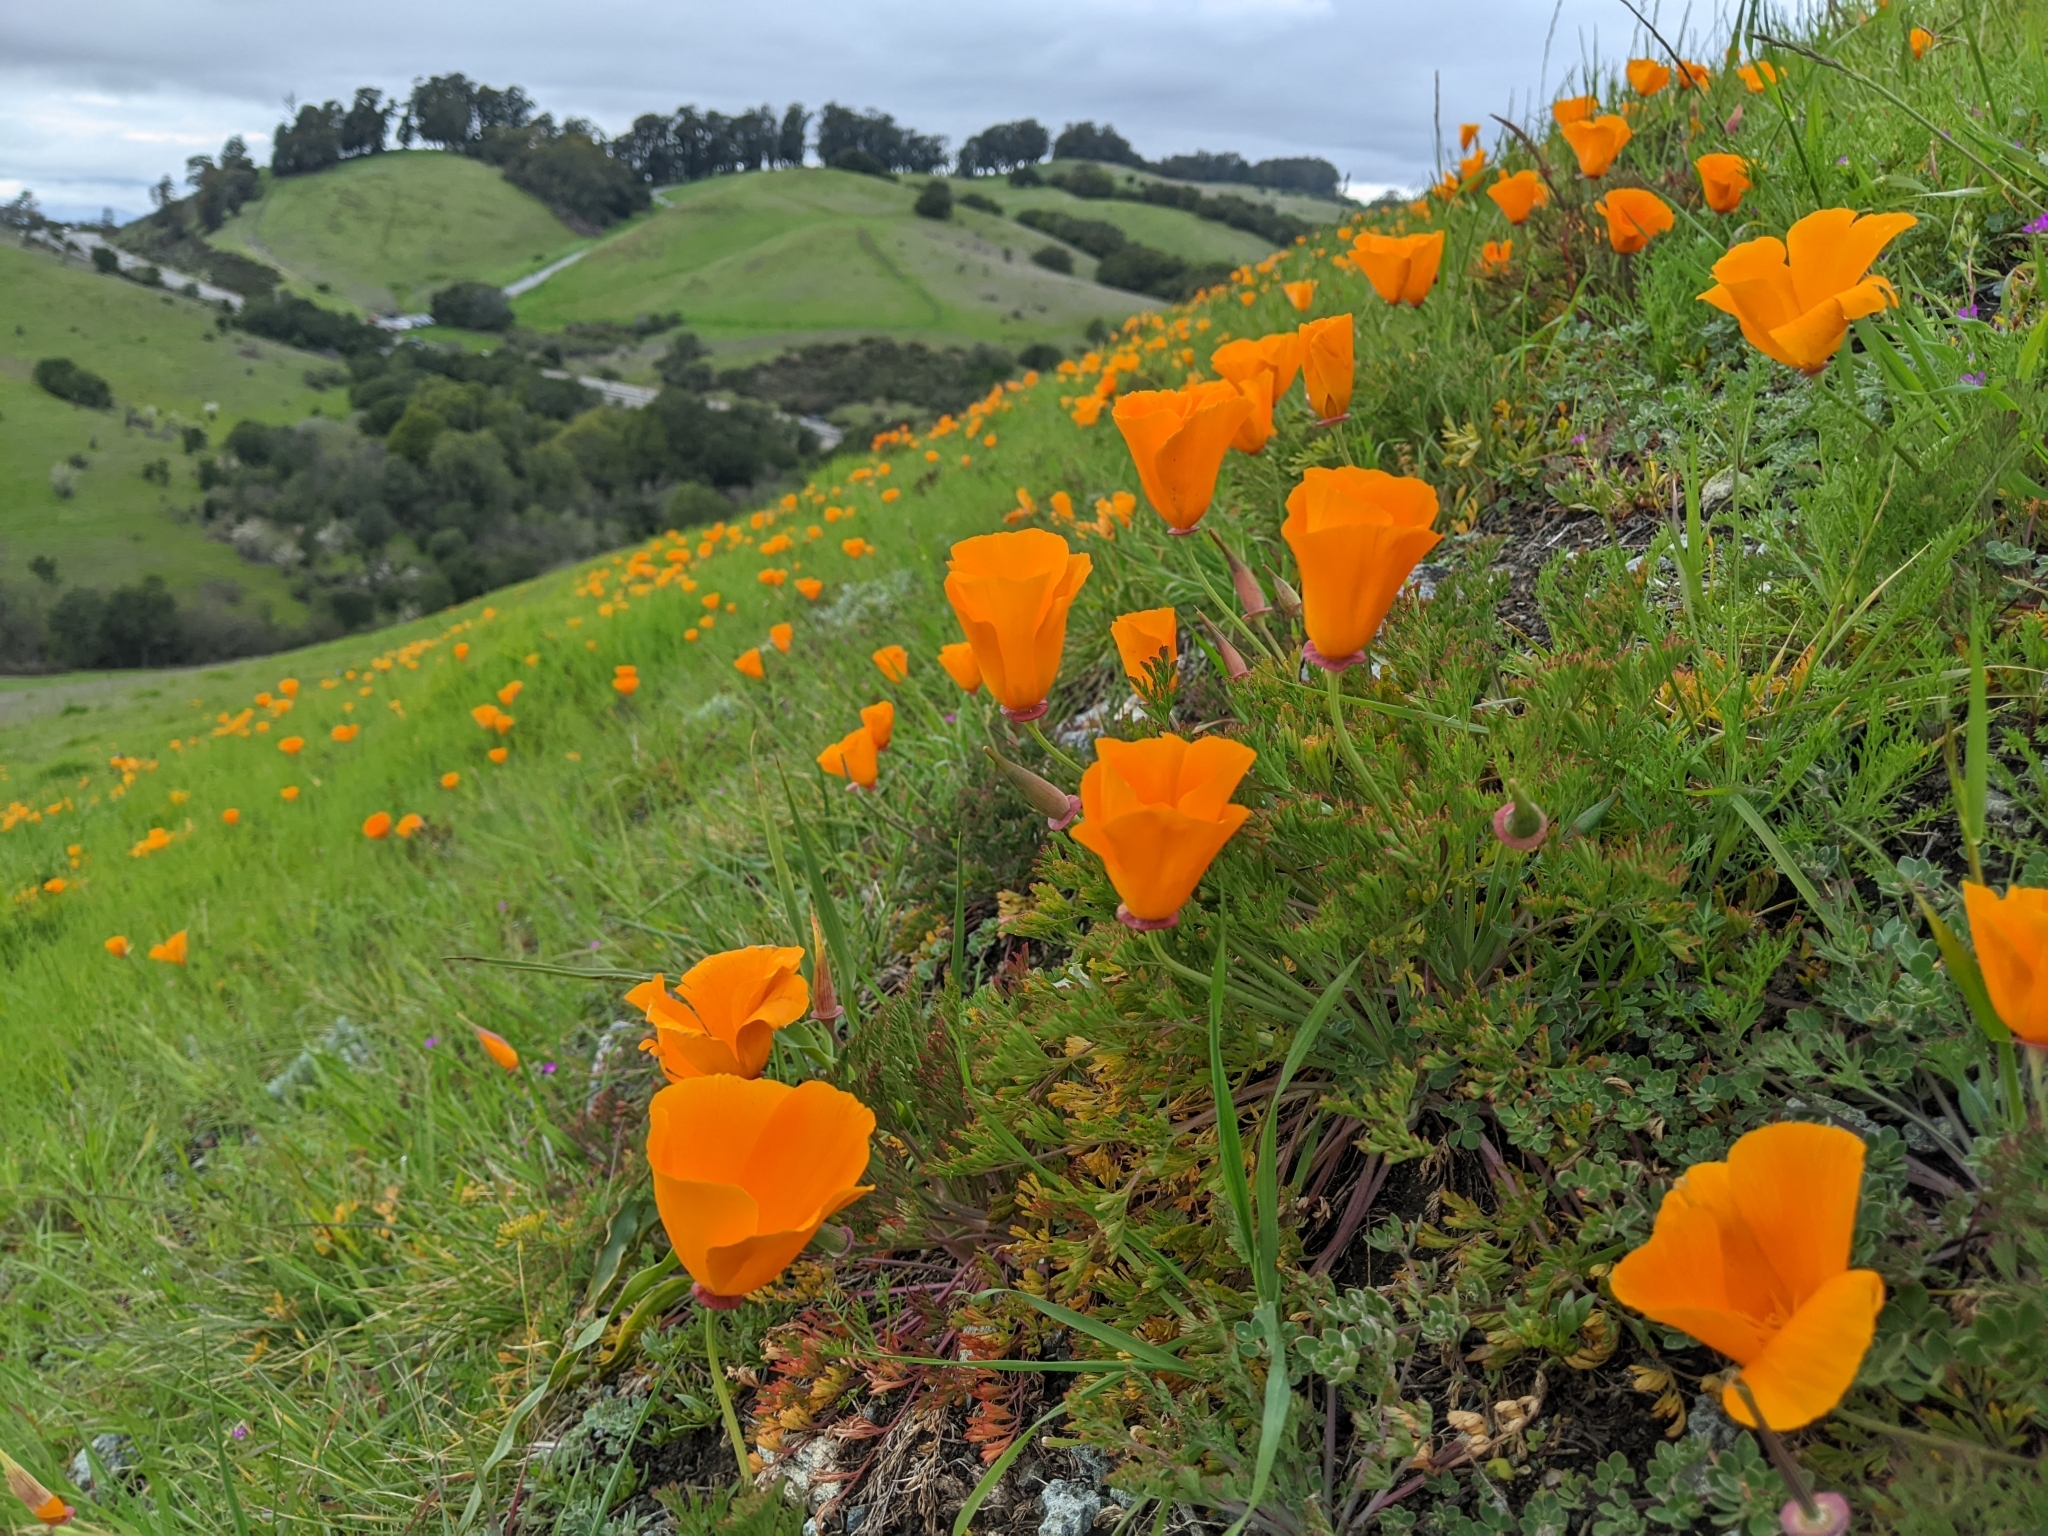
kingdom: Plantae
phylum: Tracheophyta
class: Magnoliopsida
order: Ranunculales
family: Papaveraceae
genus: Eschscholzia
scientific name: Eschscholzia californica
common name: California poppy
